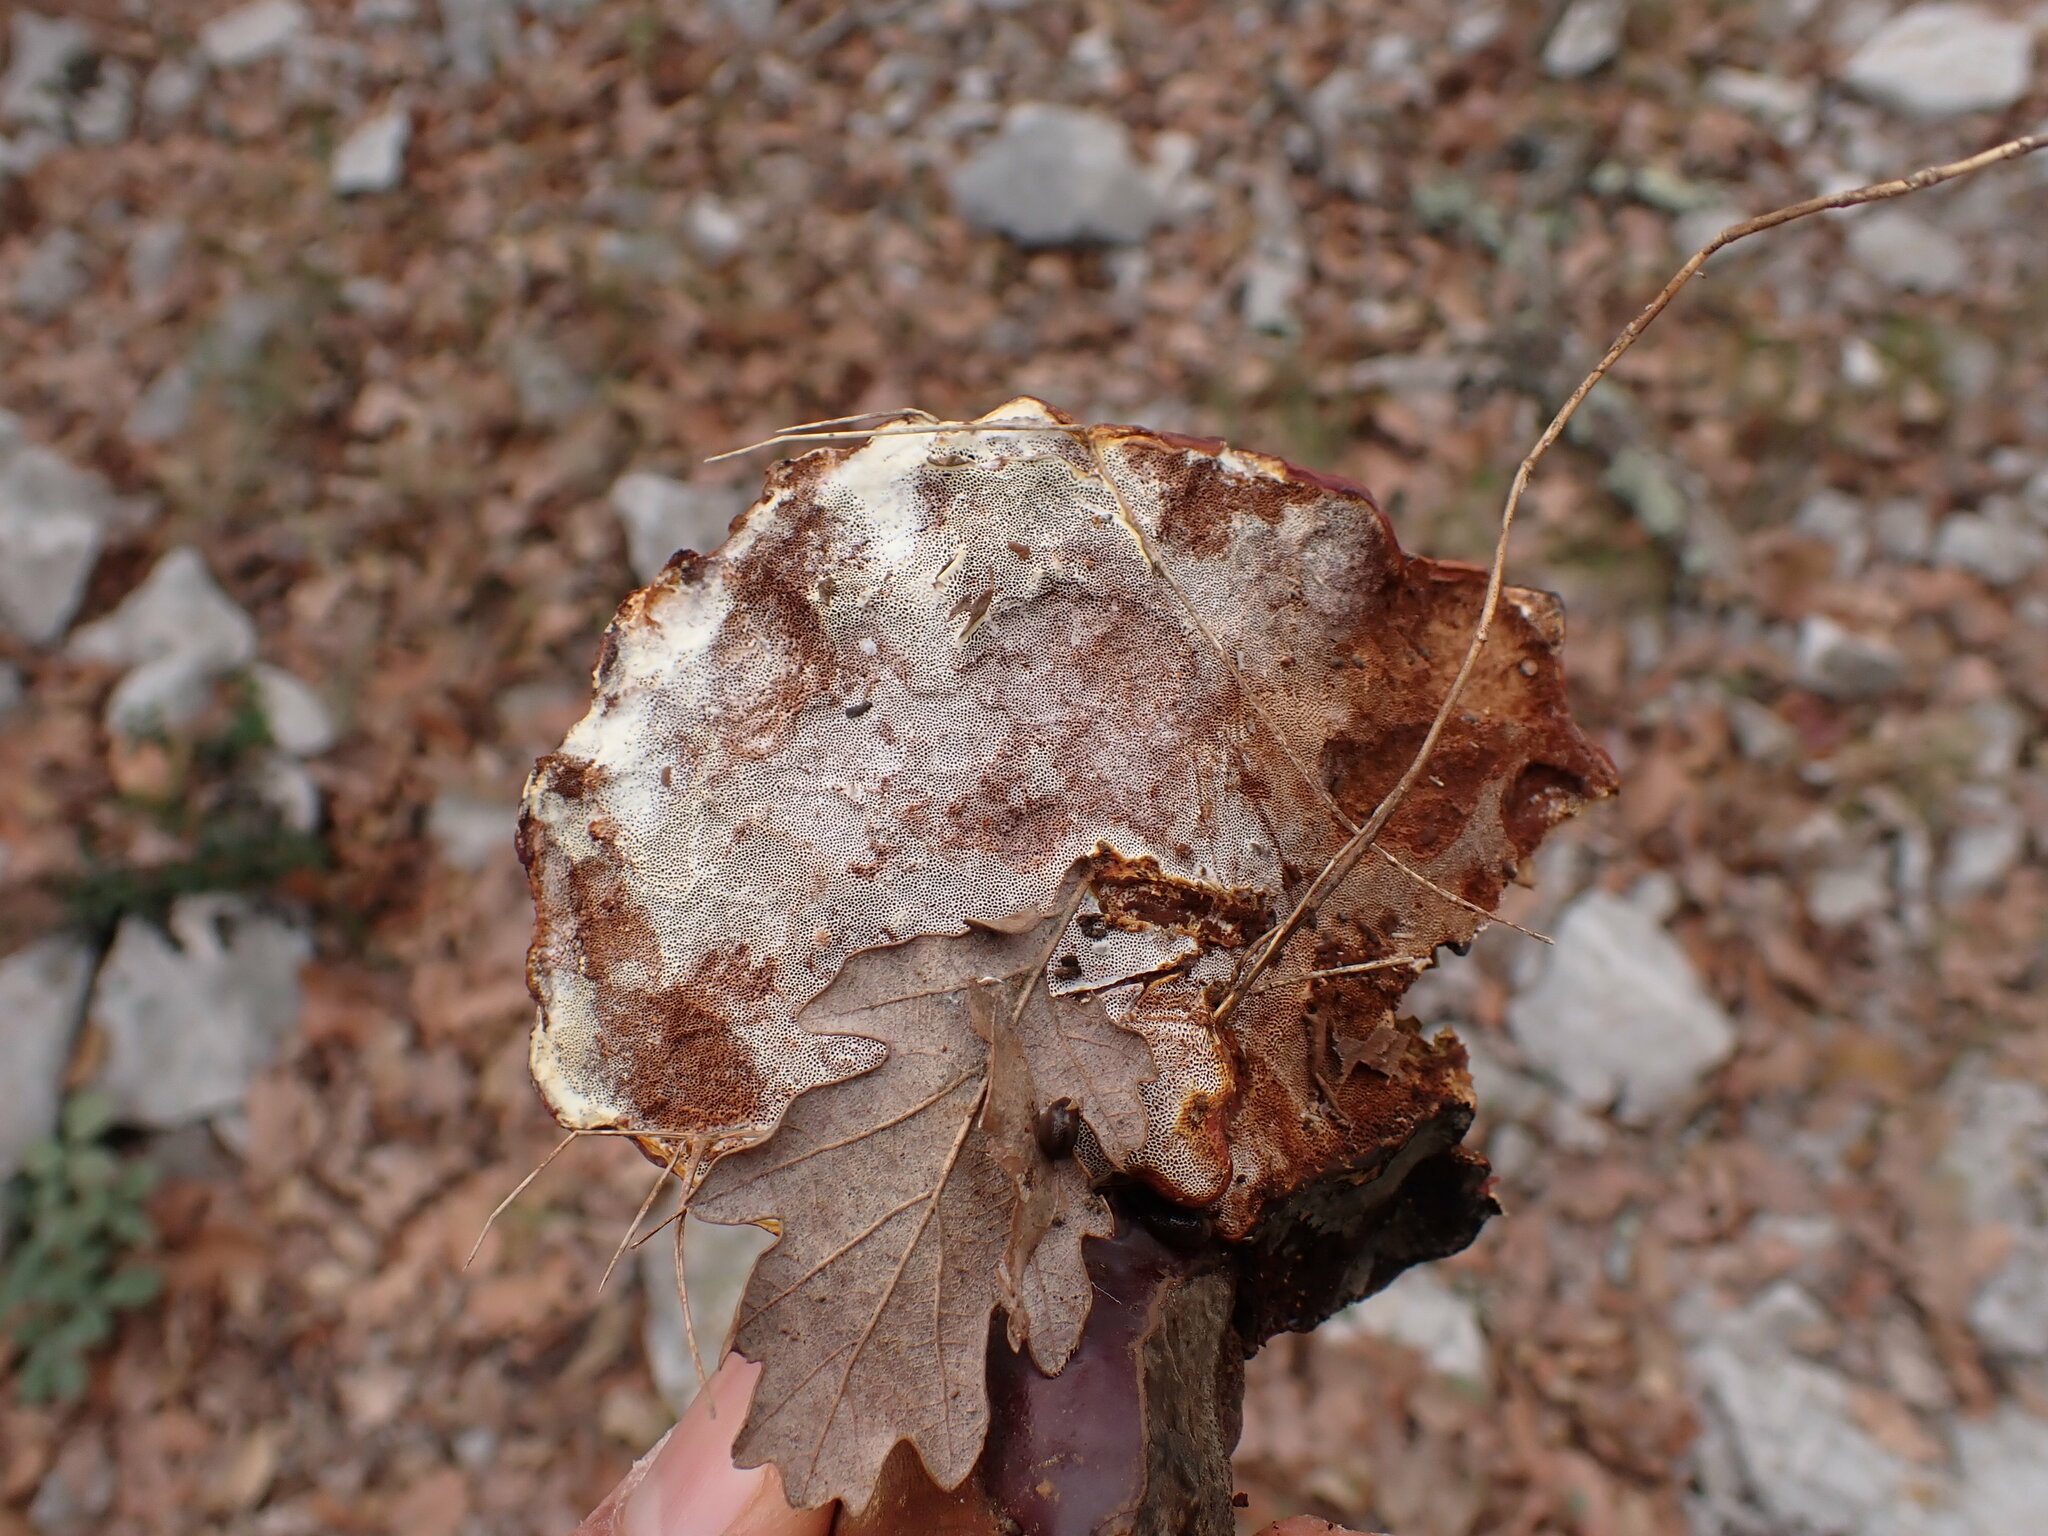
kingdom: Fungi
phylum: Basidiomycota
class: Agaricomycetes
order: Polyporales
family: Polyporaceae
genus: Ganoderma
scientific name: Ganoderma lucidum
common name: Lacquered bracket
